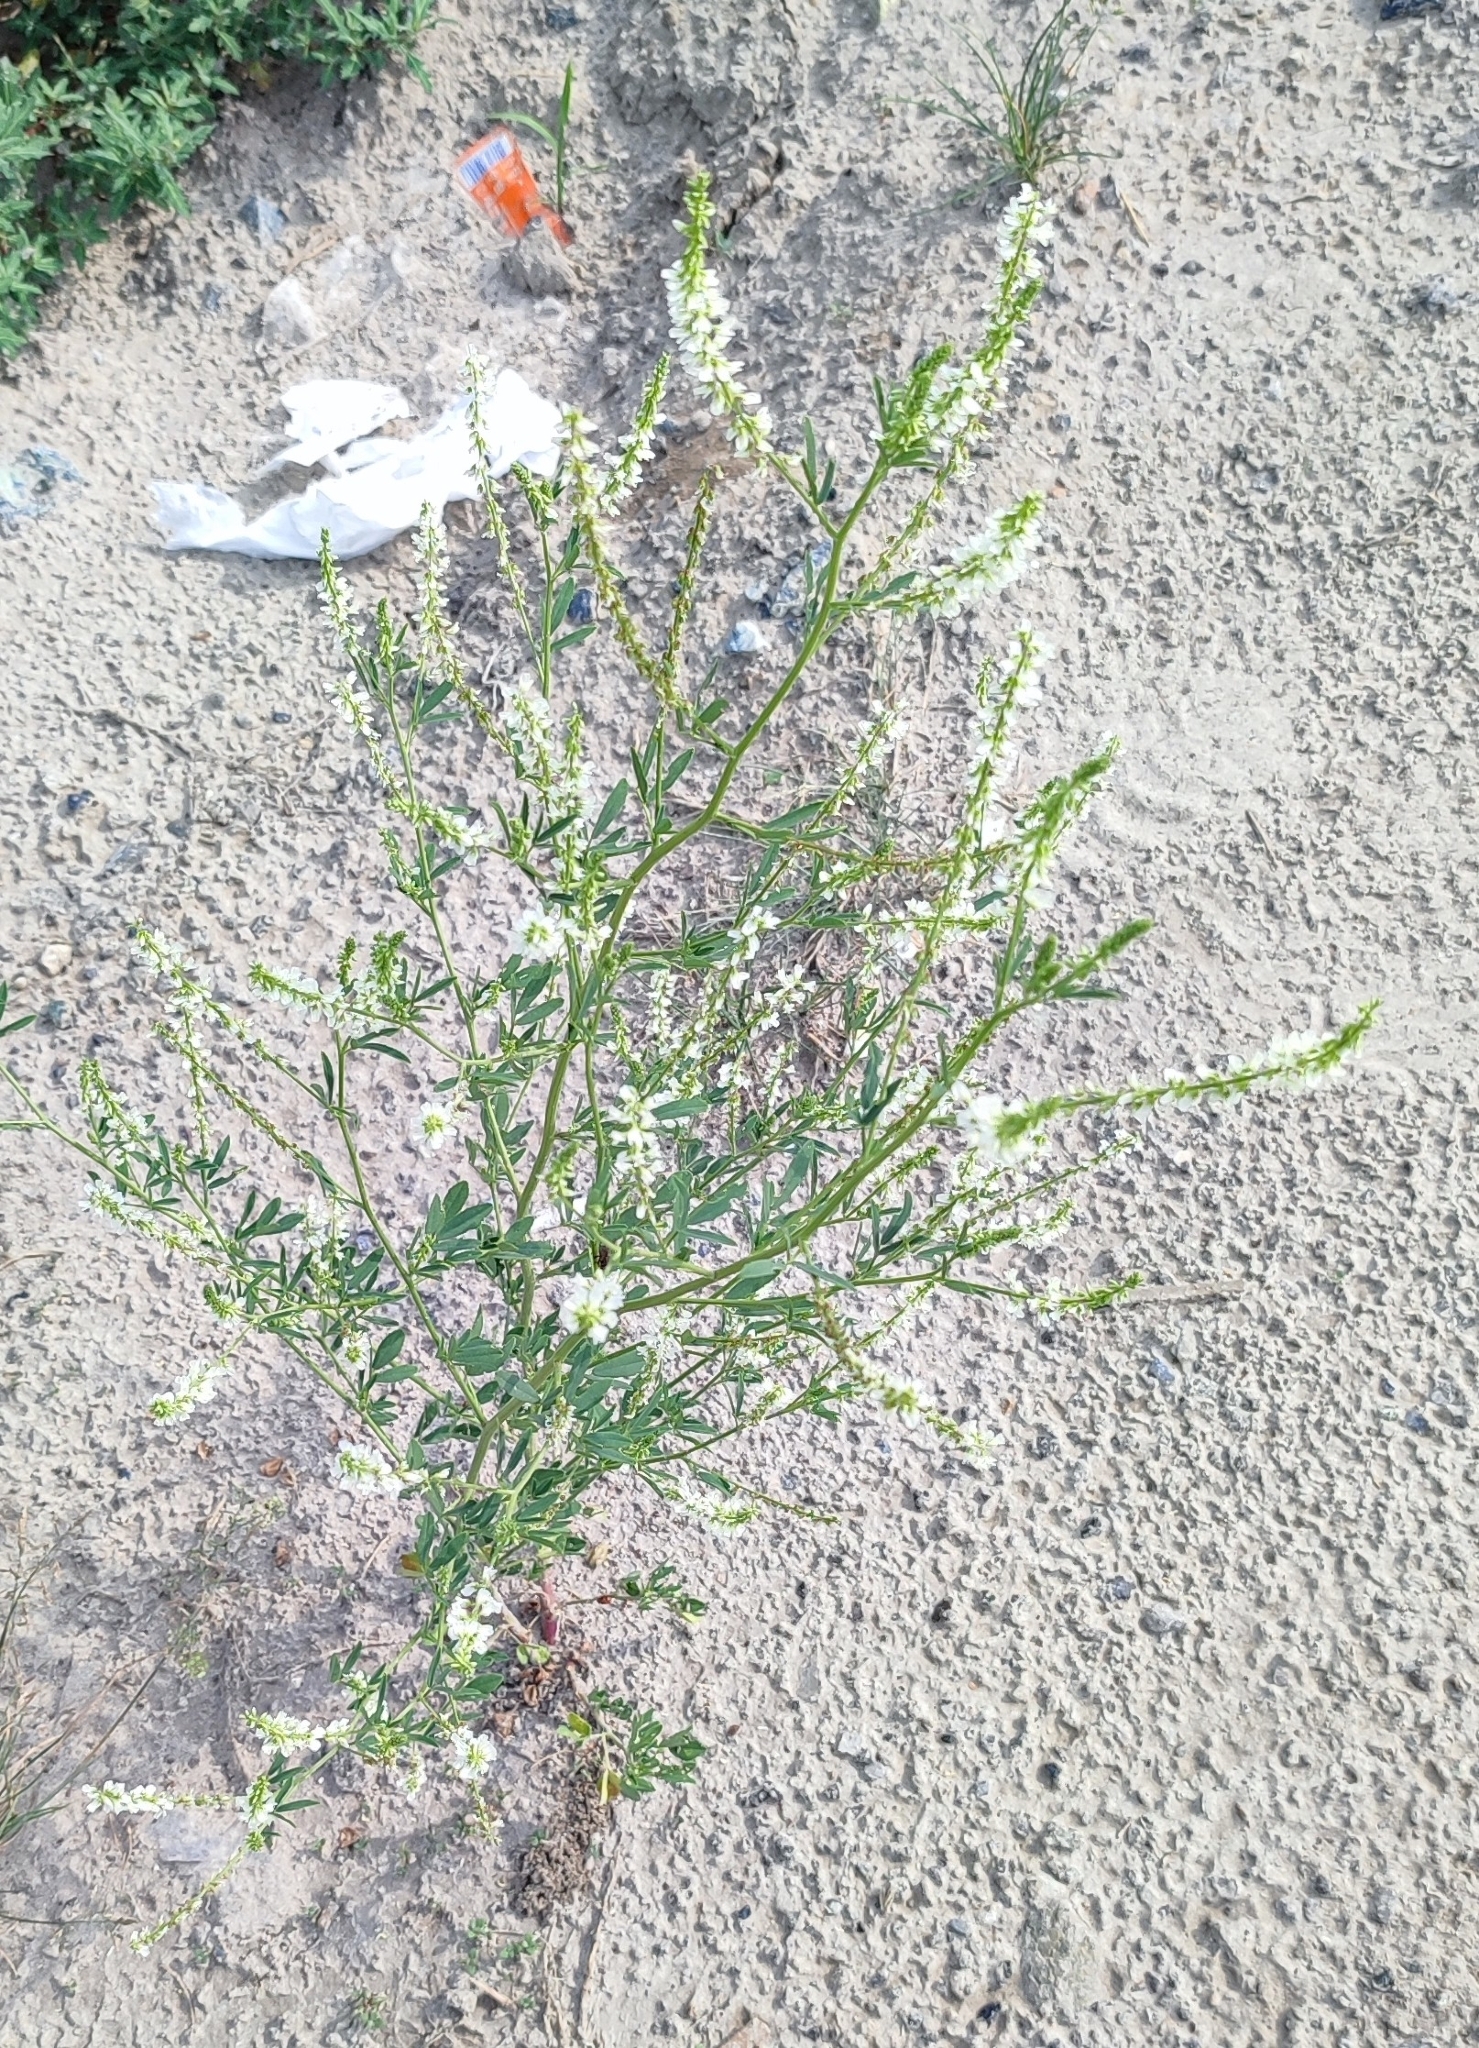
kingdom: Plantae
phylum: Tracheophyta
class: Magnoliopsida
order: Fabales
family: Fabaceae
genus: Melilotus
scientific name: Melilotus albus
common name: White melilot
